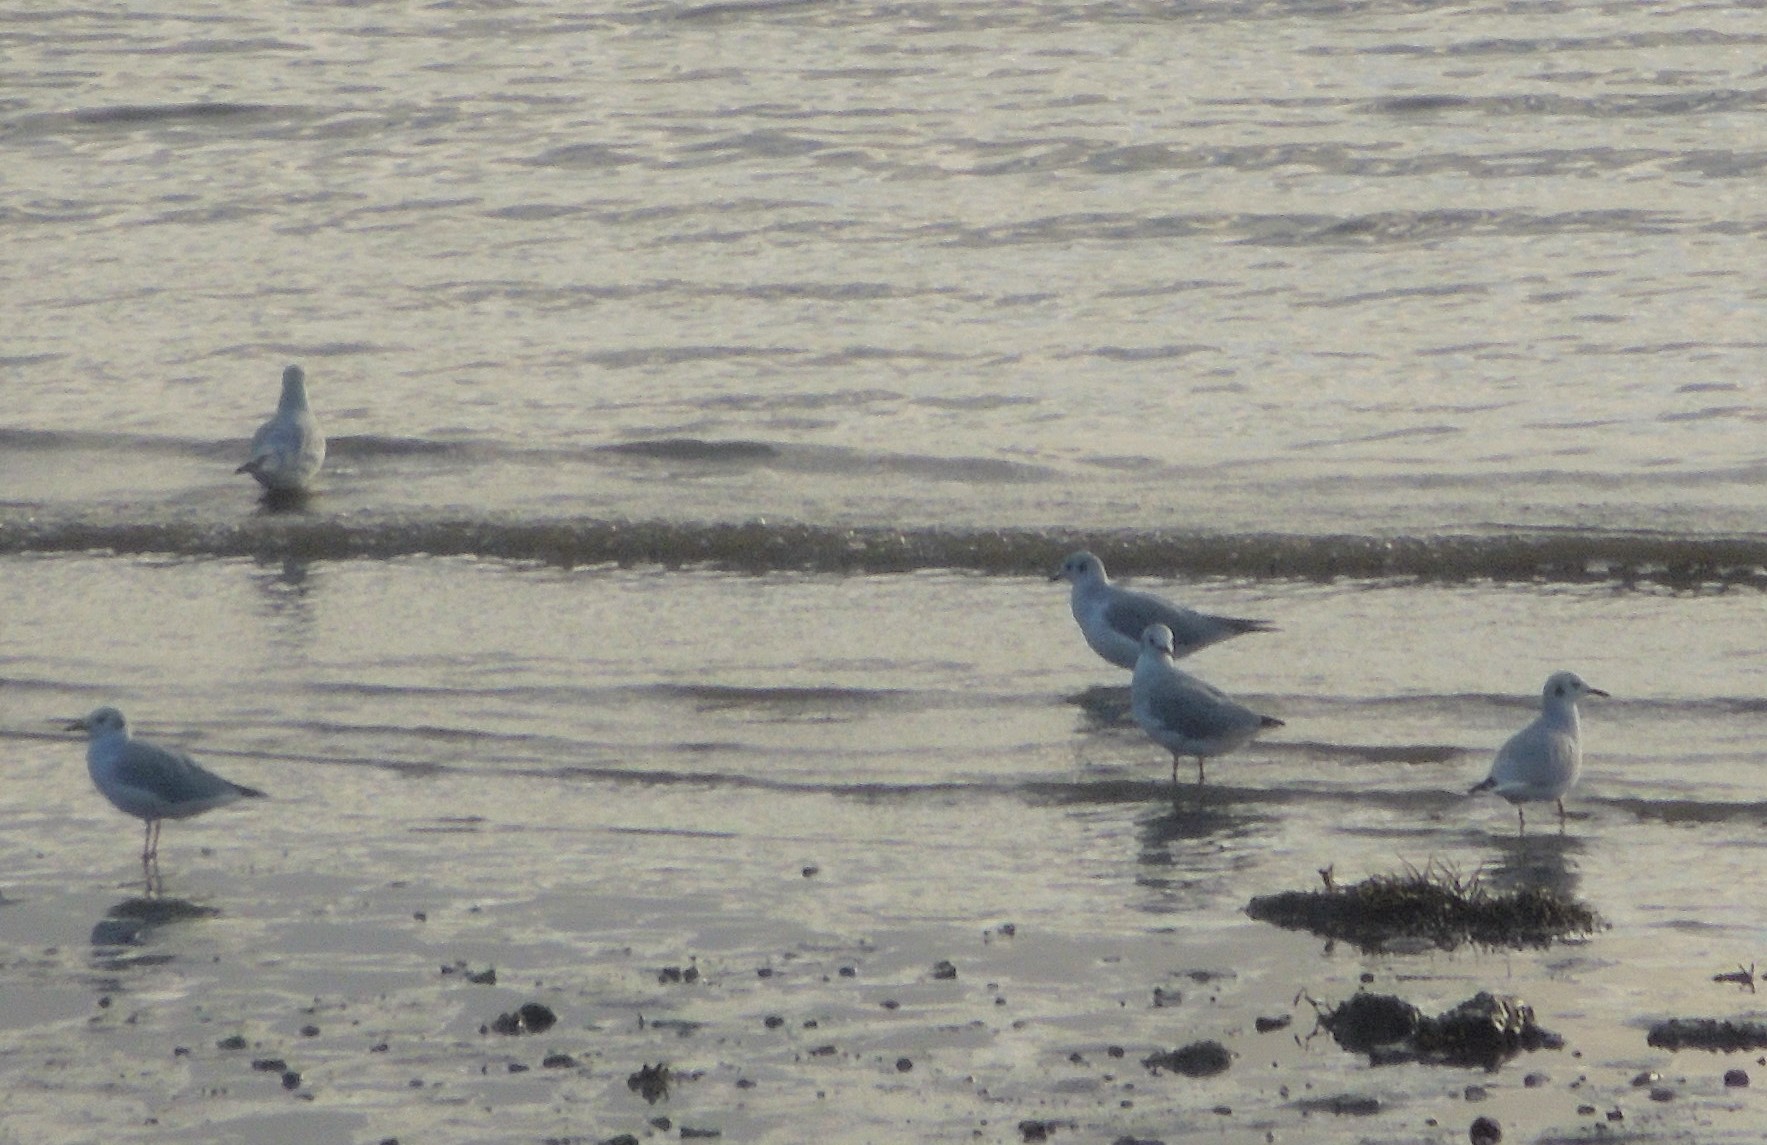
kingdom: Animalia
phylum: Chordata
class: Aves
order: Charadriiformes
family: Laridae
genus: Chroicocephalus
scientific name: Chroicocephalus philadelphia
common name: Bonaparte's gull
